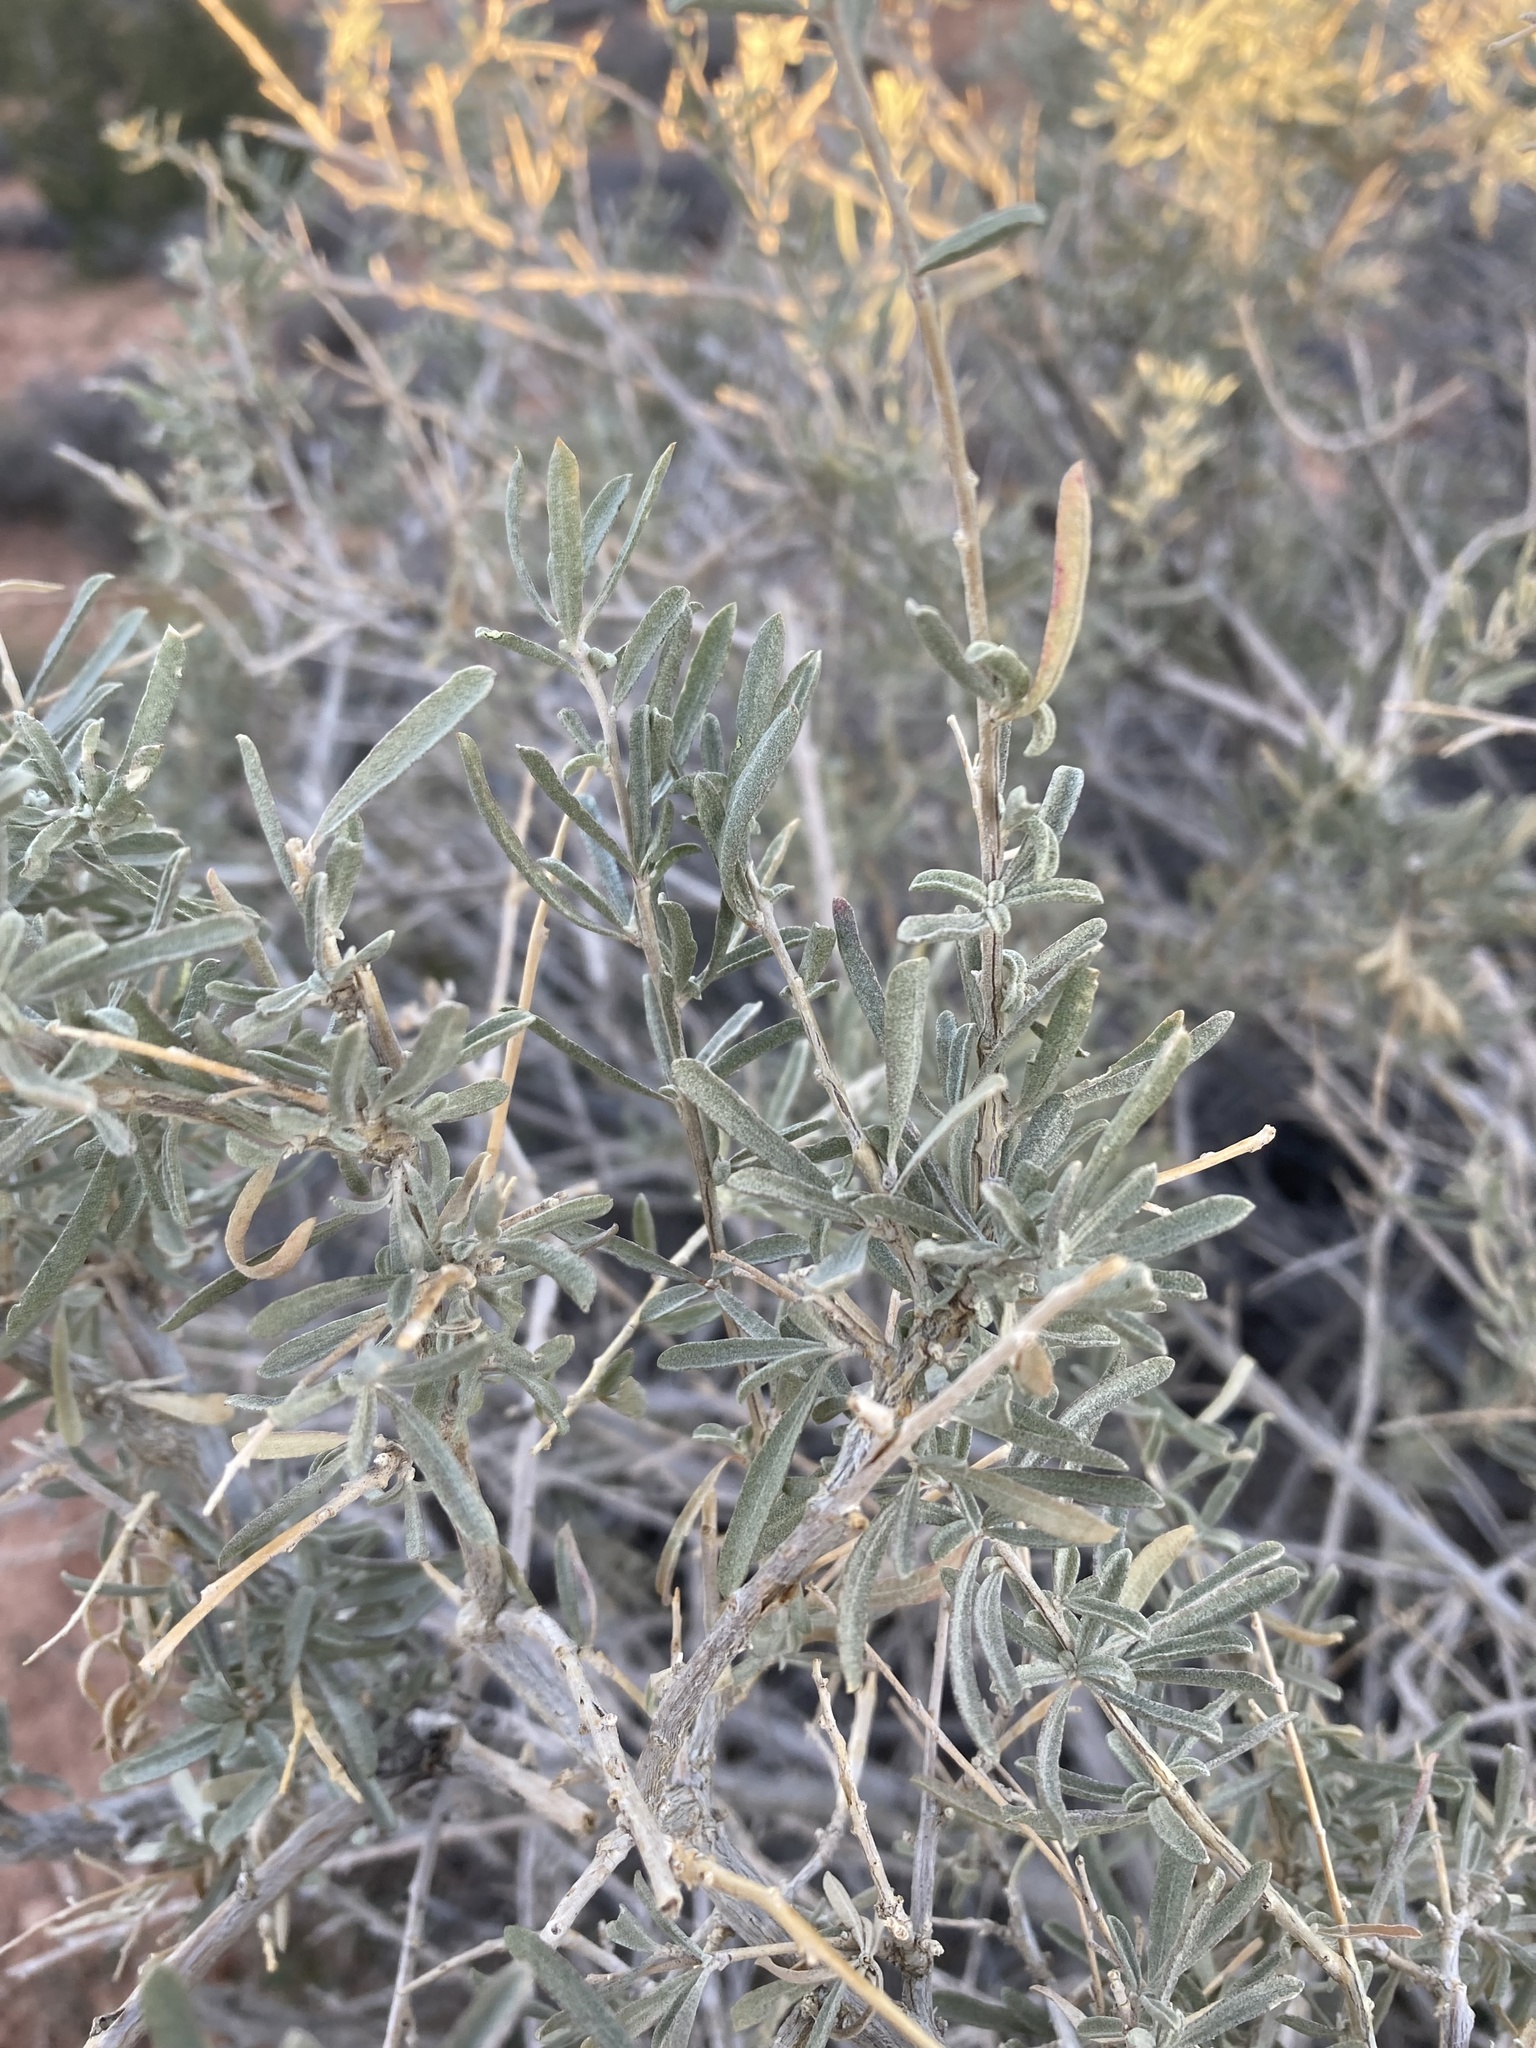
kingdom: Plantae
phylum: Tracheophyta
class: Magnoliopsida
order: Caryophyllales
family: Amaranthaceae
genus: Atriplex
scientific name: Atriplex canescens
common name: Four-wing saltbush
